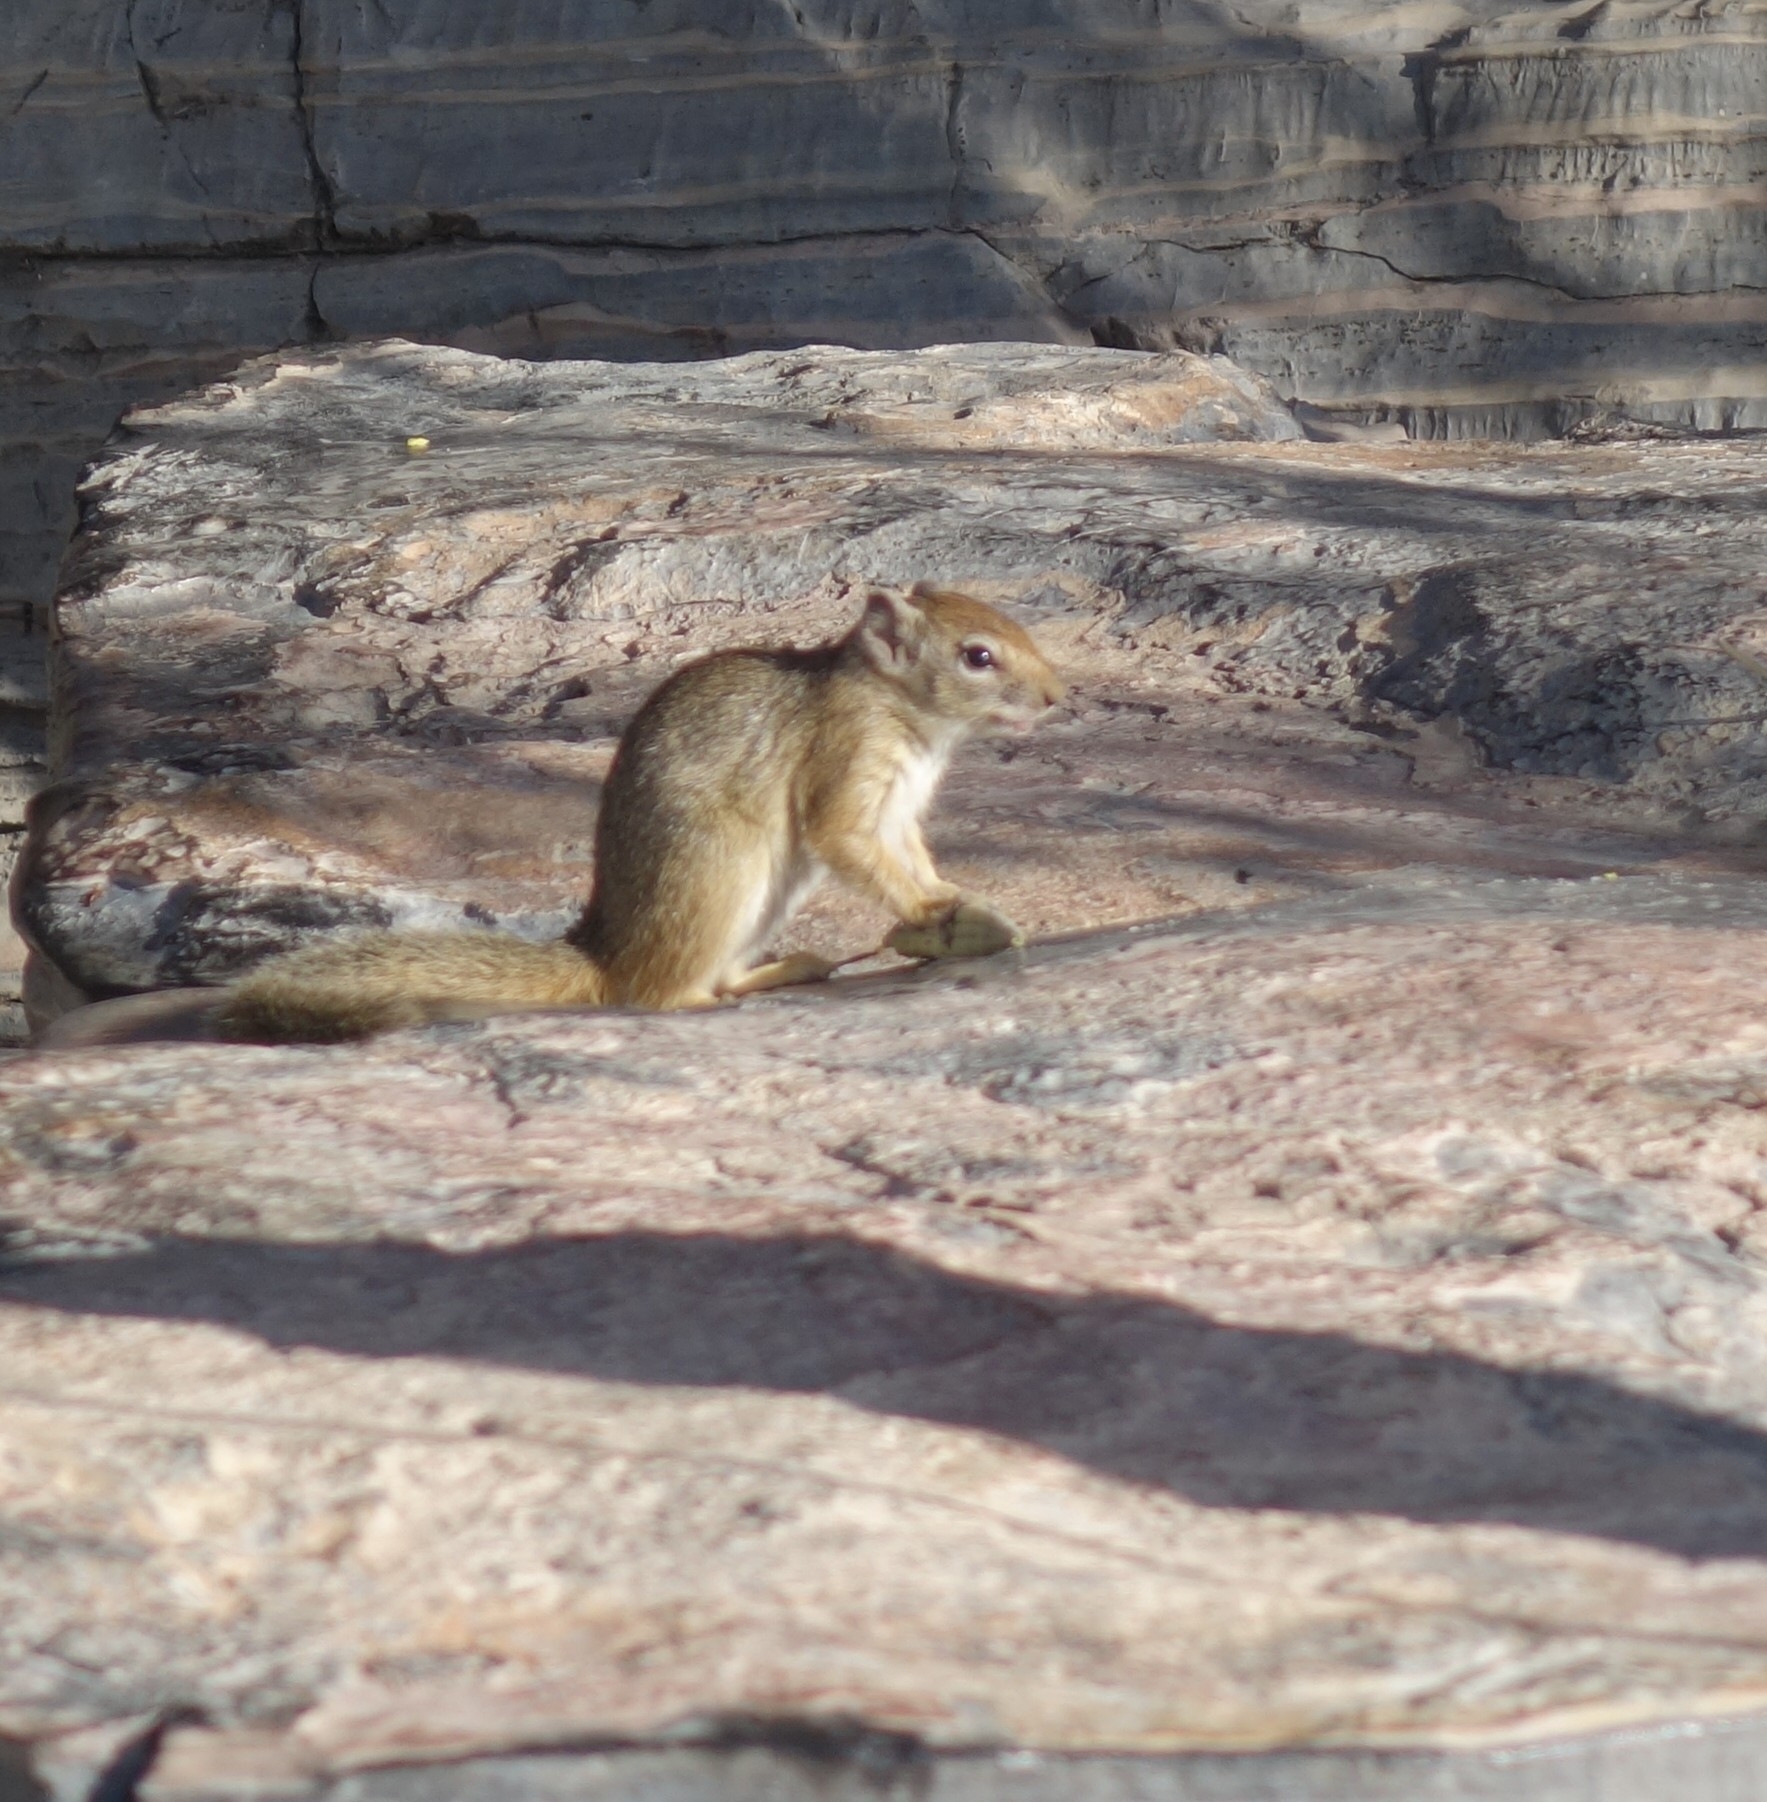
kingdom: Animalia
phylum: Chordata
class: Mammalia
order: Rodentia
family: Sciuridae
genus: Paraxerus
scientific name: Paraxerus cepapi
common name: Smith's bush squirrel
